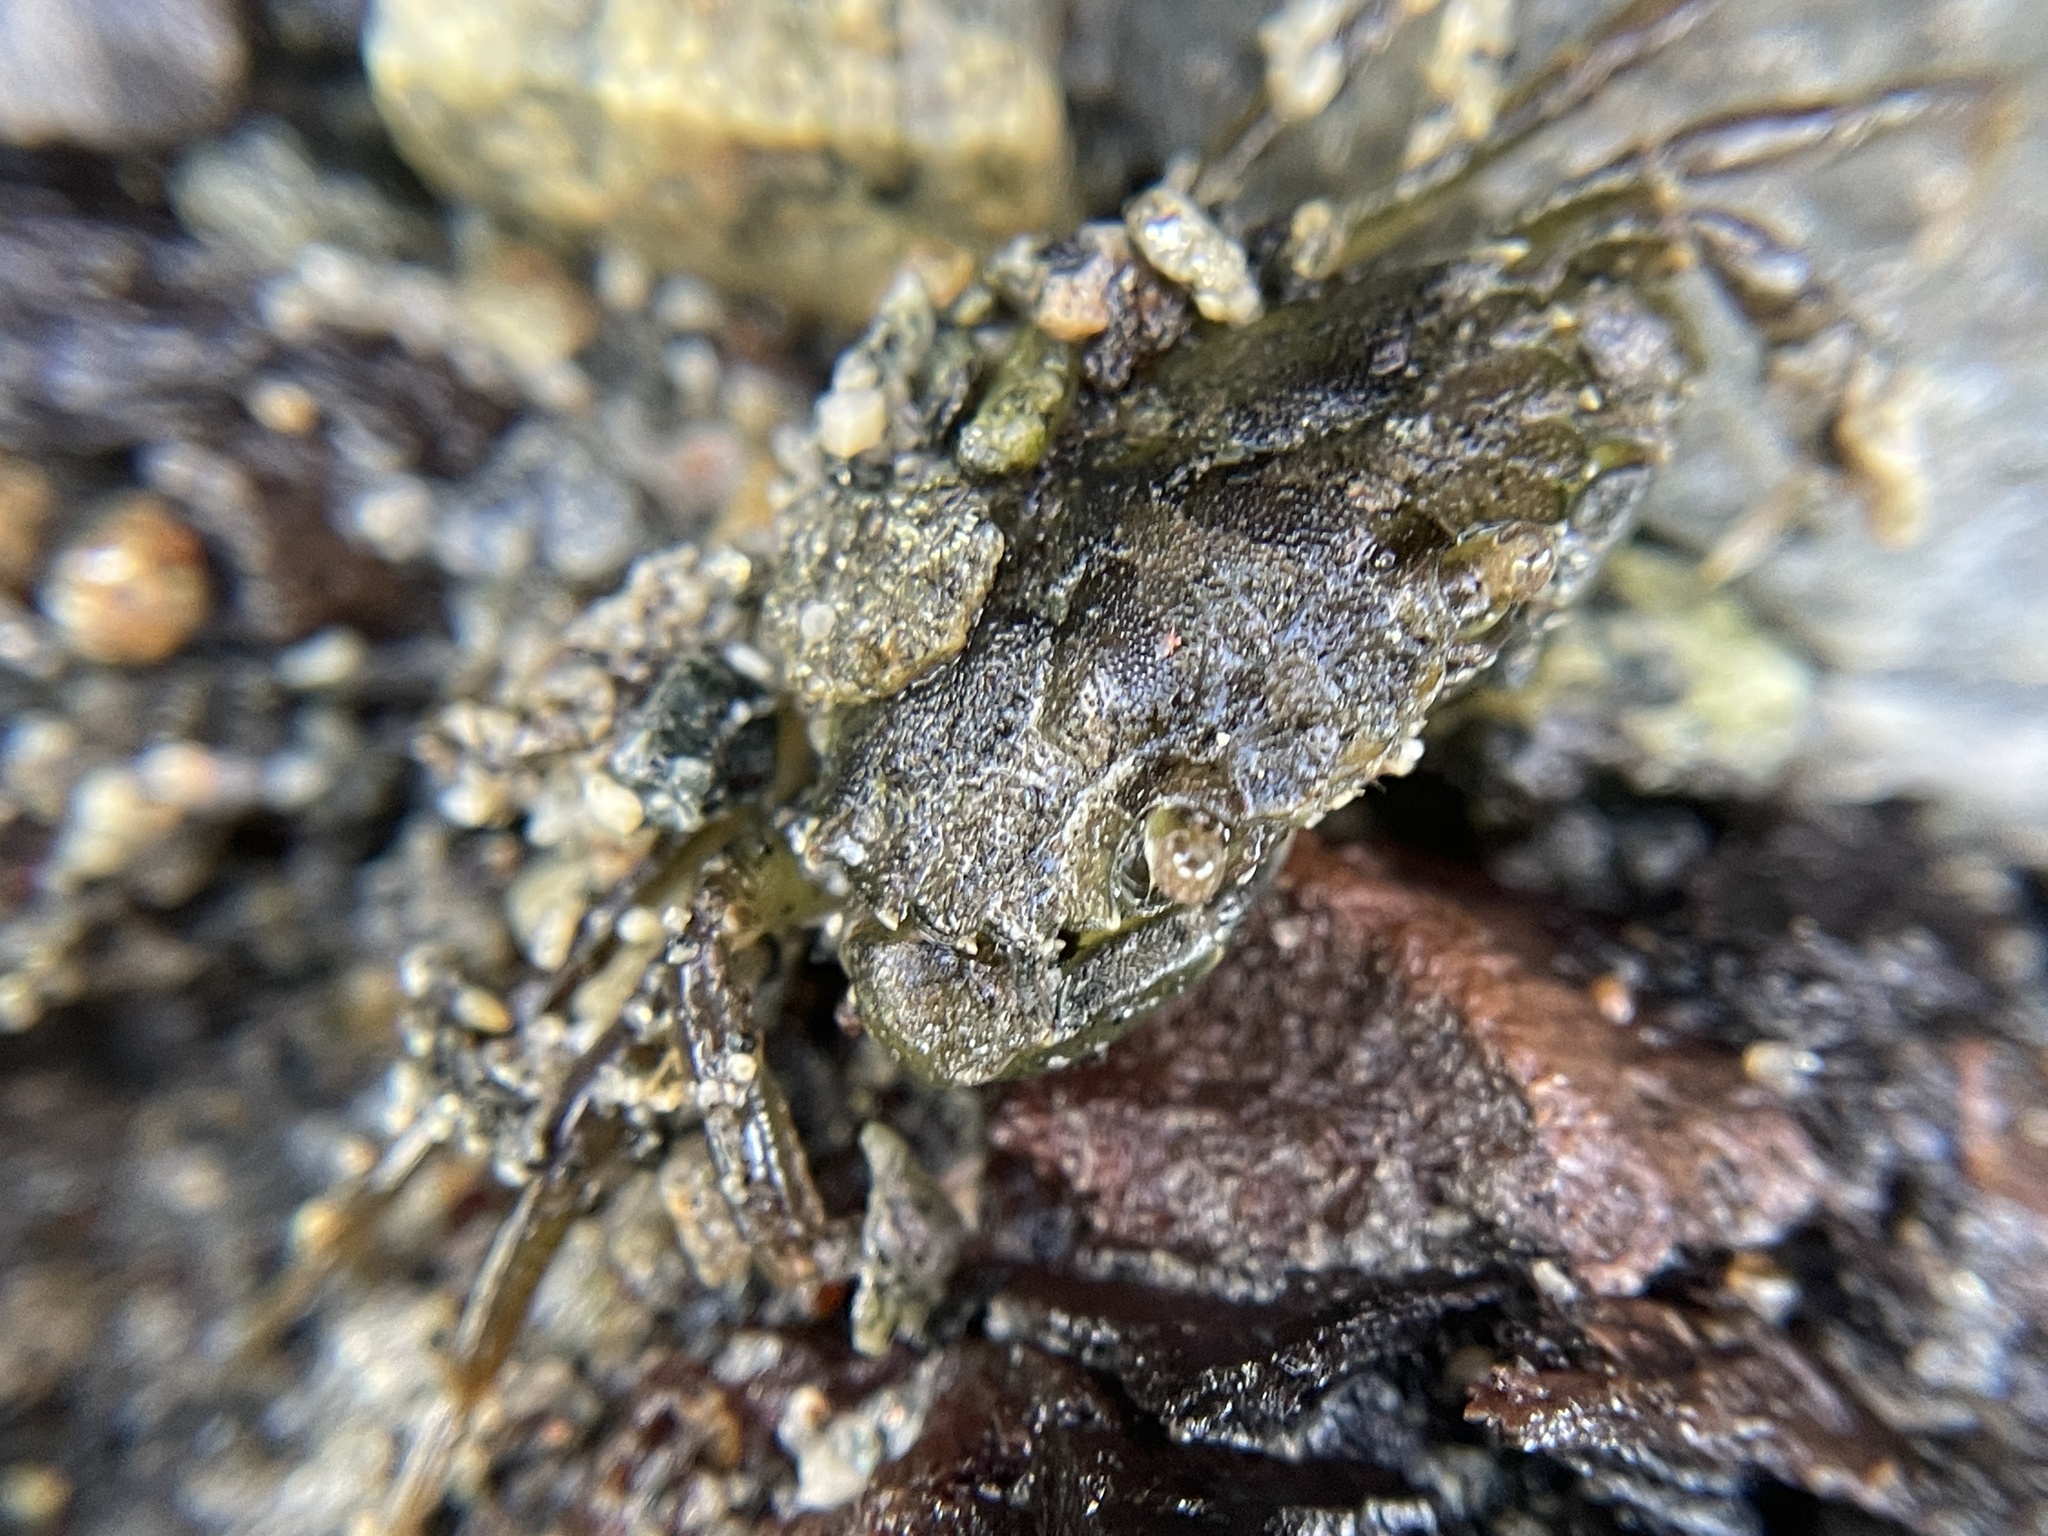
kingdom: Animalia
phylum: Arthropoda
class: Malacostraca
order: Decapoda
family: Carcinidae
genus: Carcinus
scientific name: Carcinus maenas
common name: European green crab
